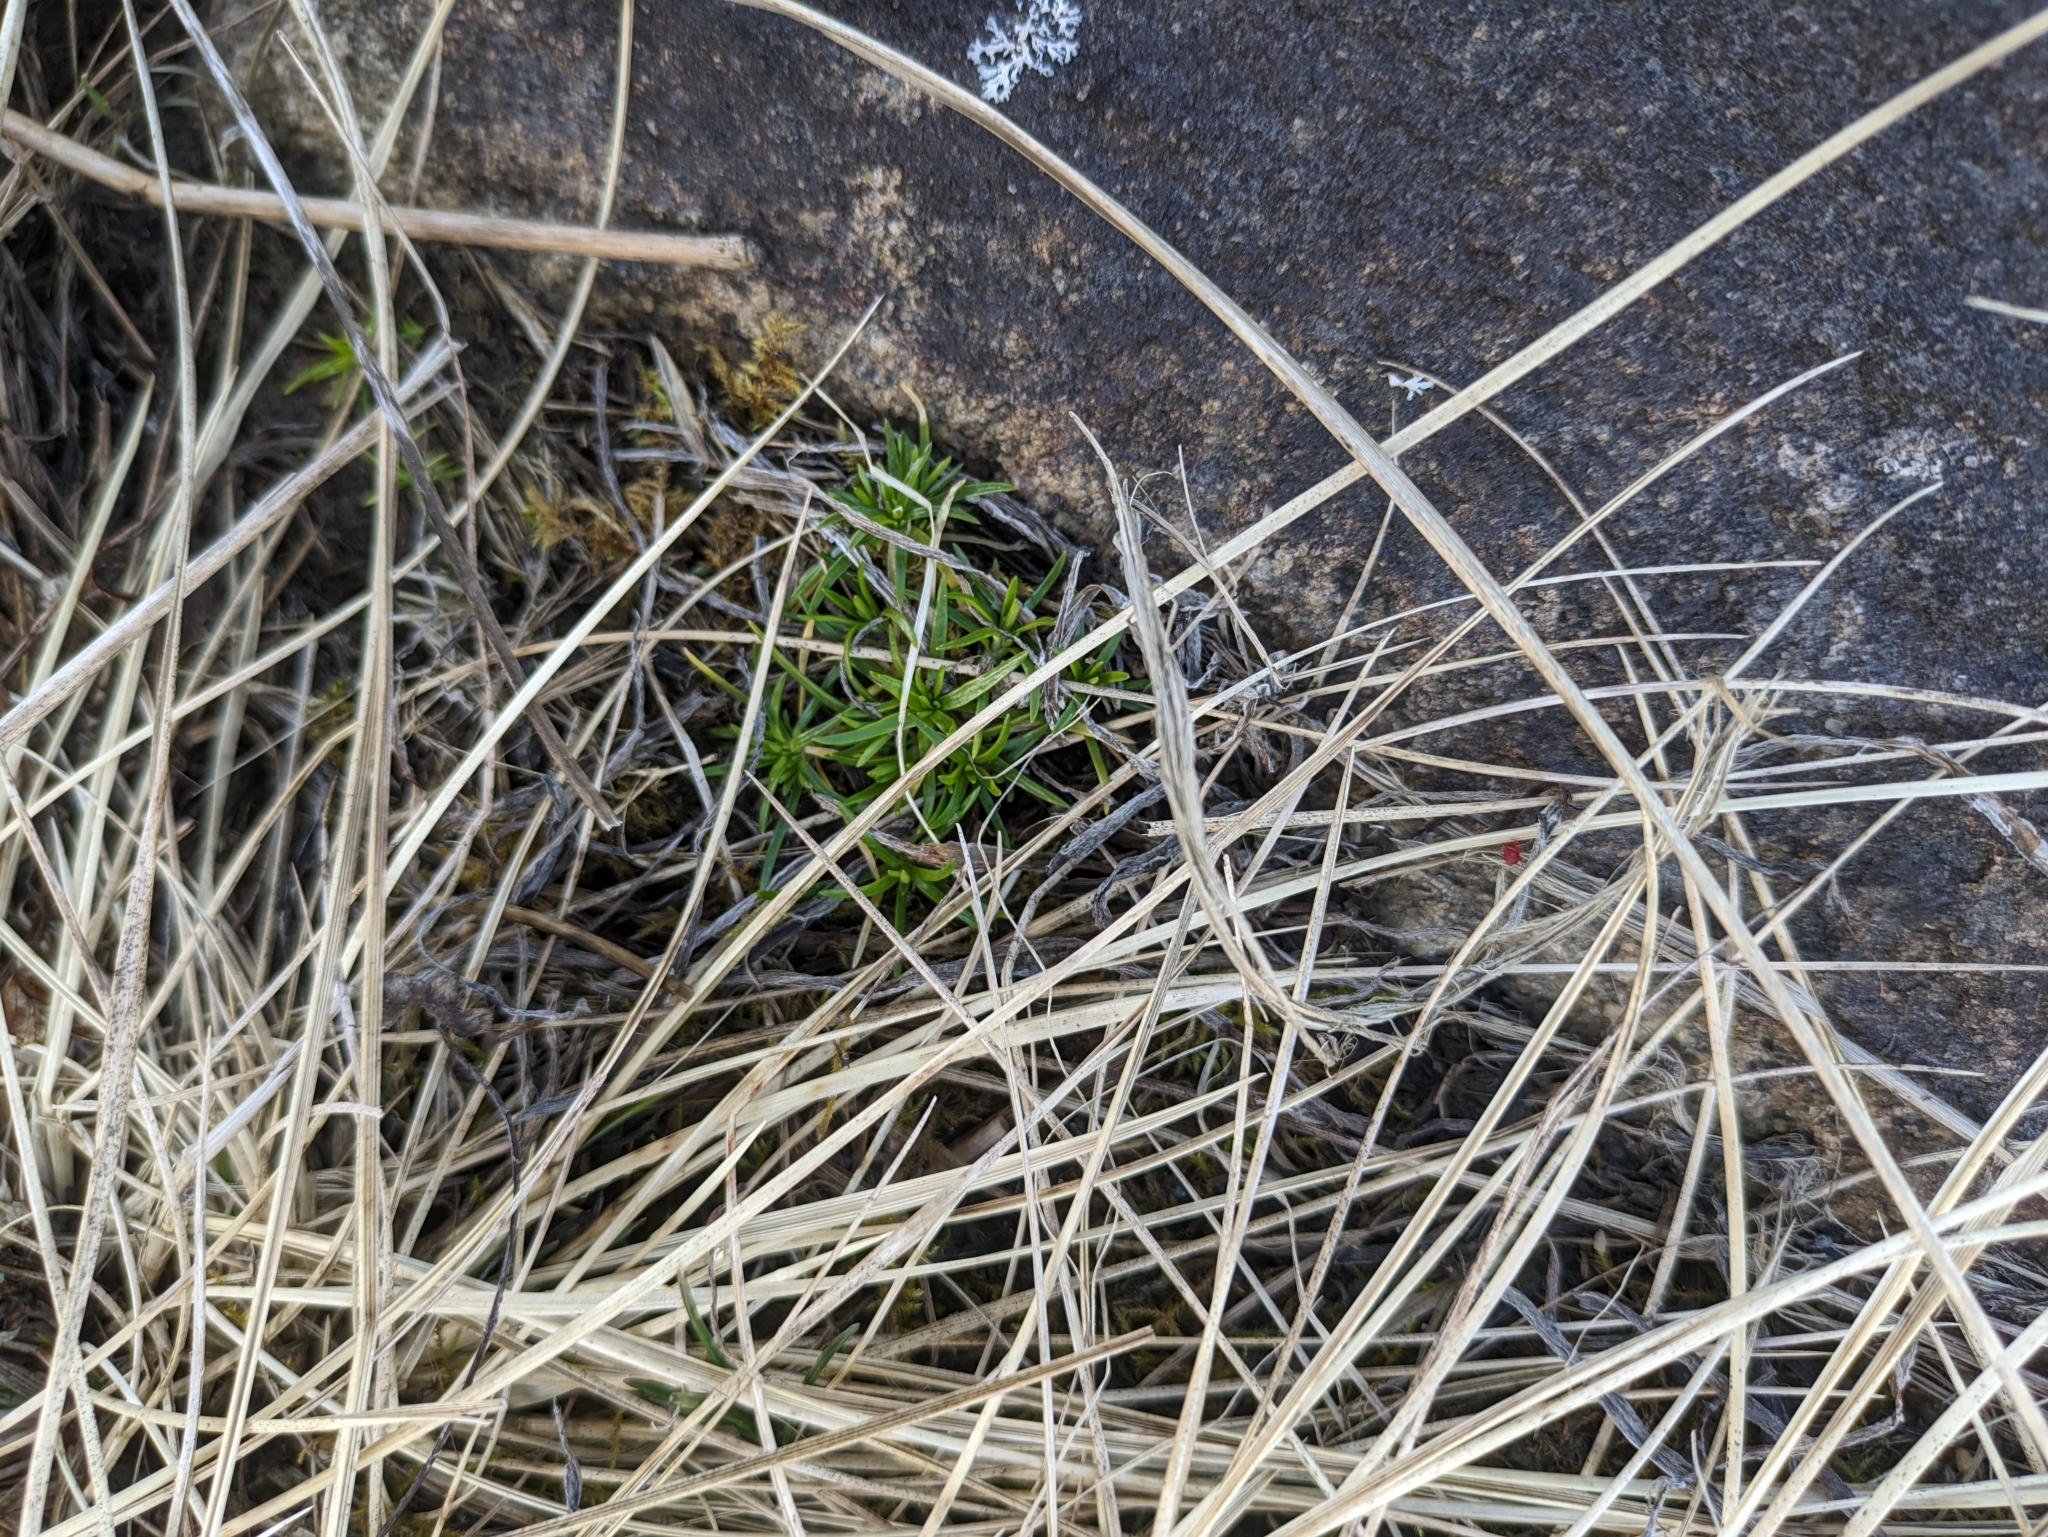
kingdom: Plantae
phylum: Tracheophyta
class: Magnoliopsida
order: Caryophyllales
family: Caryophyllaceae
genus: Sagina
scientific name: Sagina maxima
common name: Coastal pearlwort
